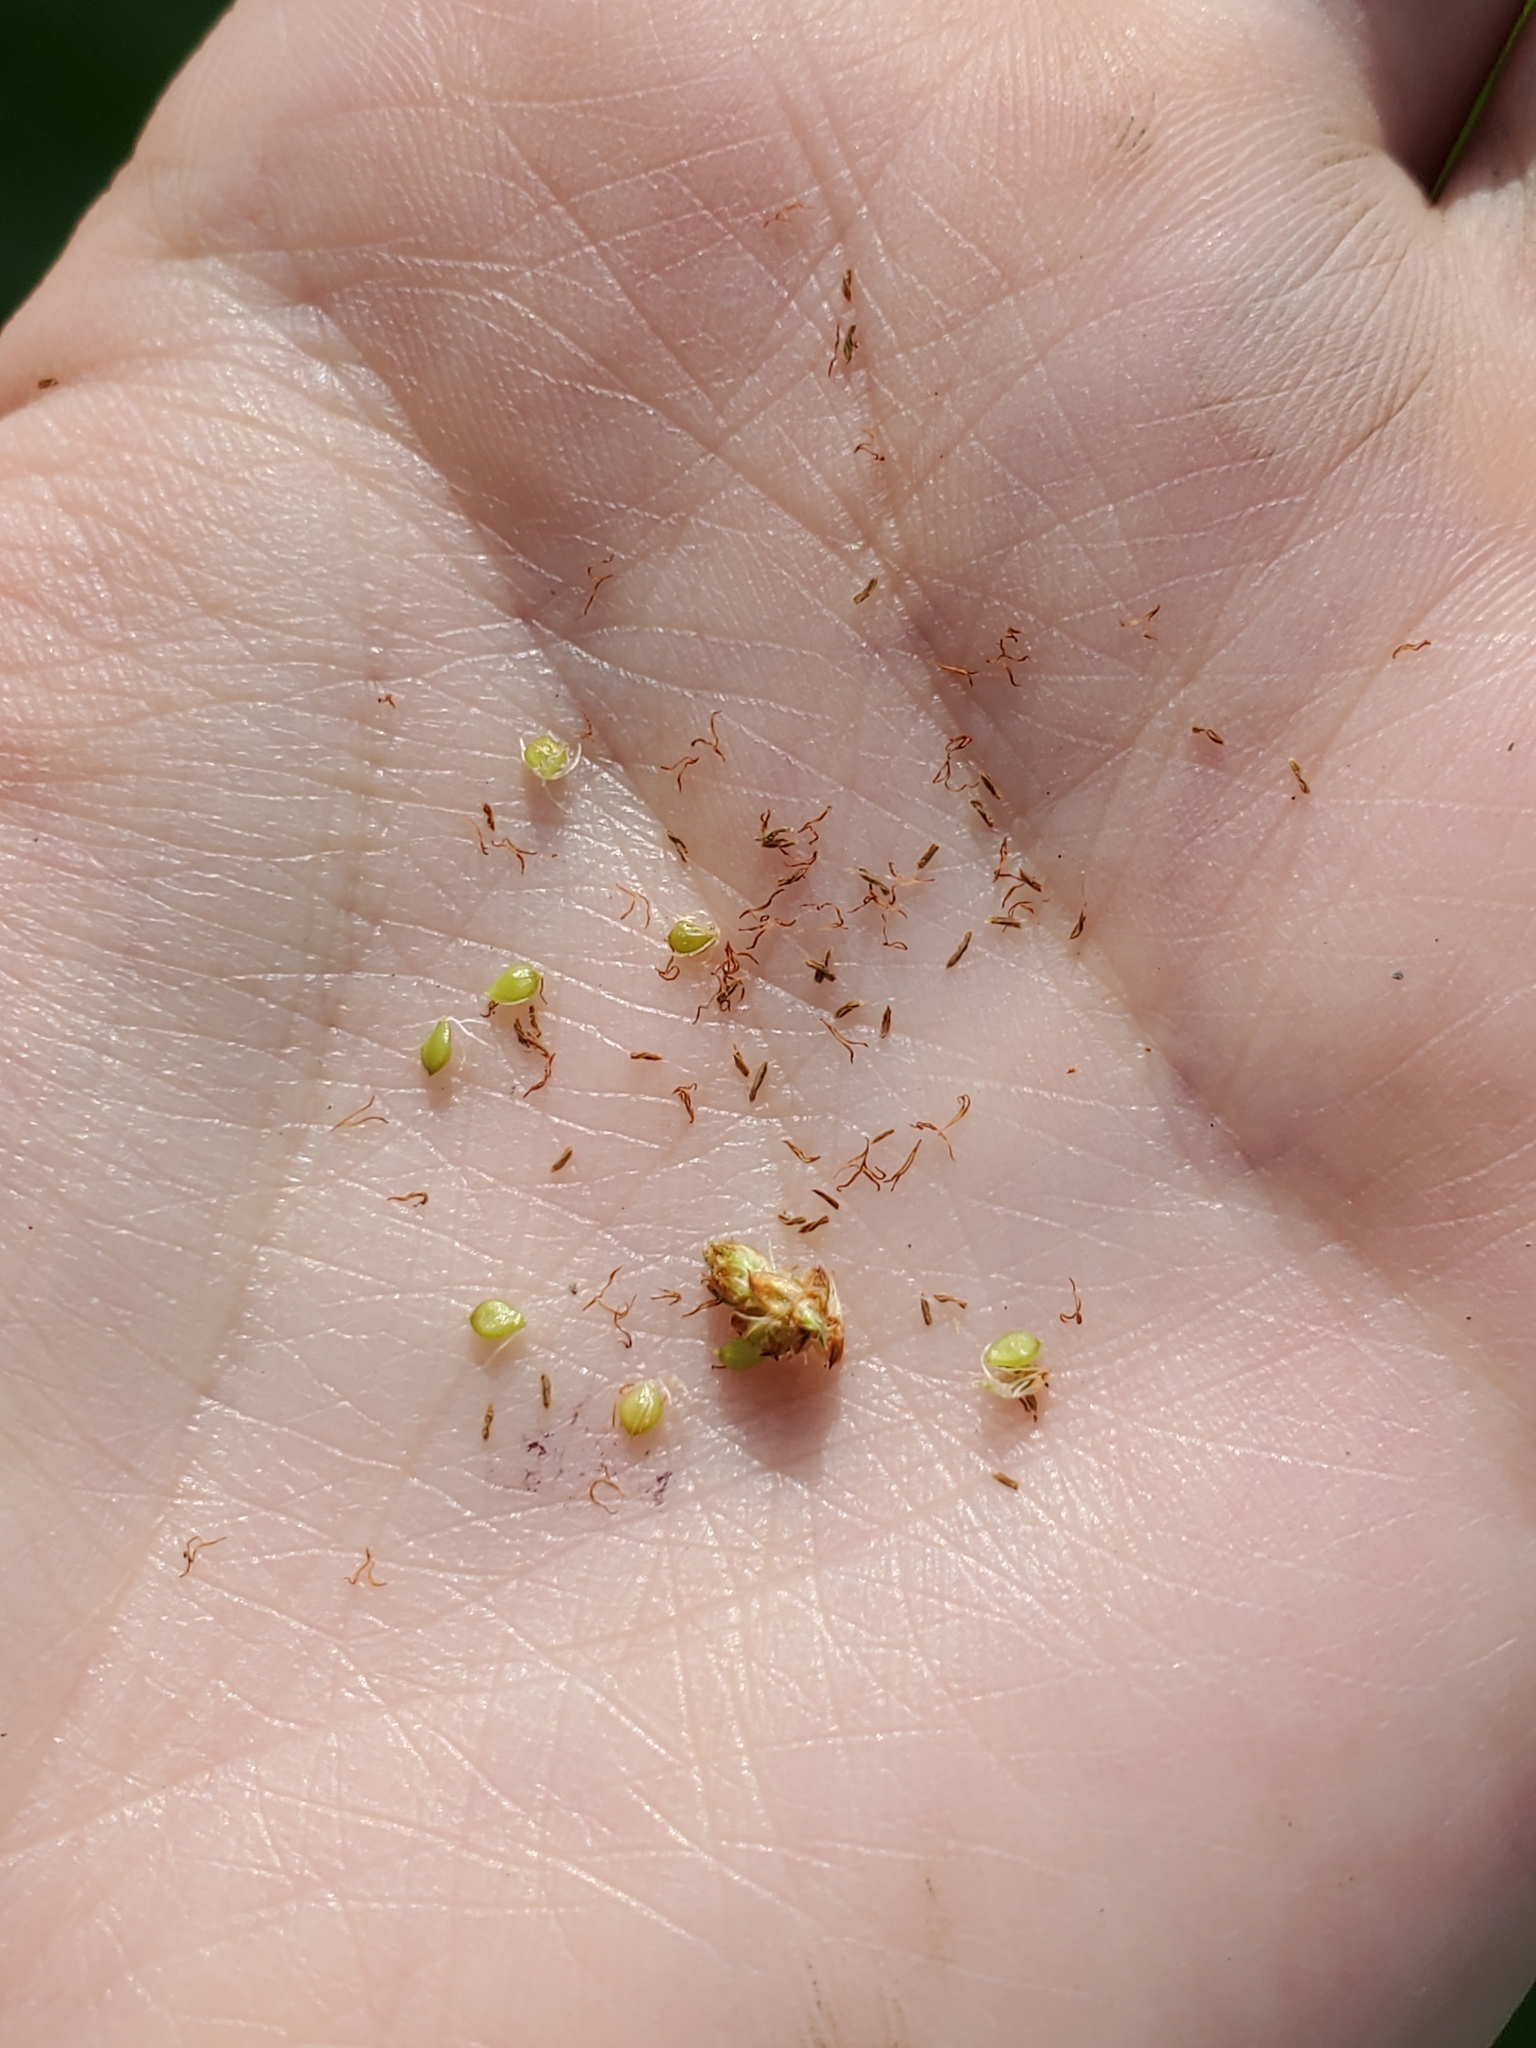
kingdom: Plantae
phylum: Tracheophyta
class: Liliopsida
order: Poales
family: Cyperaceae
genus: Schoenoplectus
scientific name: Schoenoplectus tabernaemontani
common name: Grey club-rush
